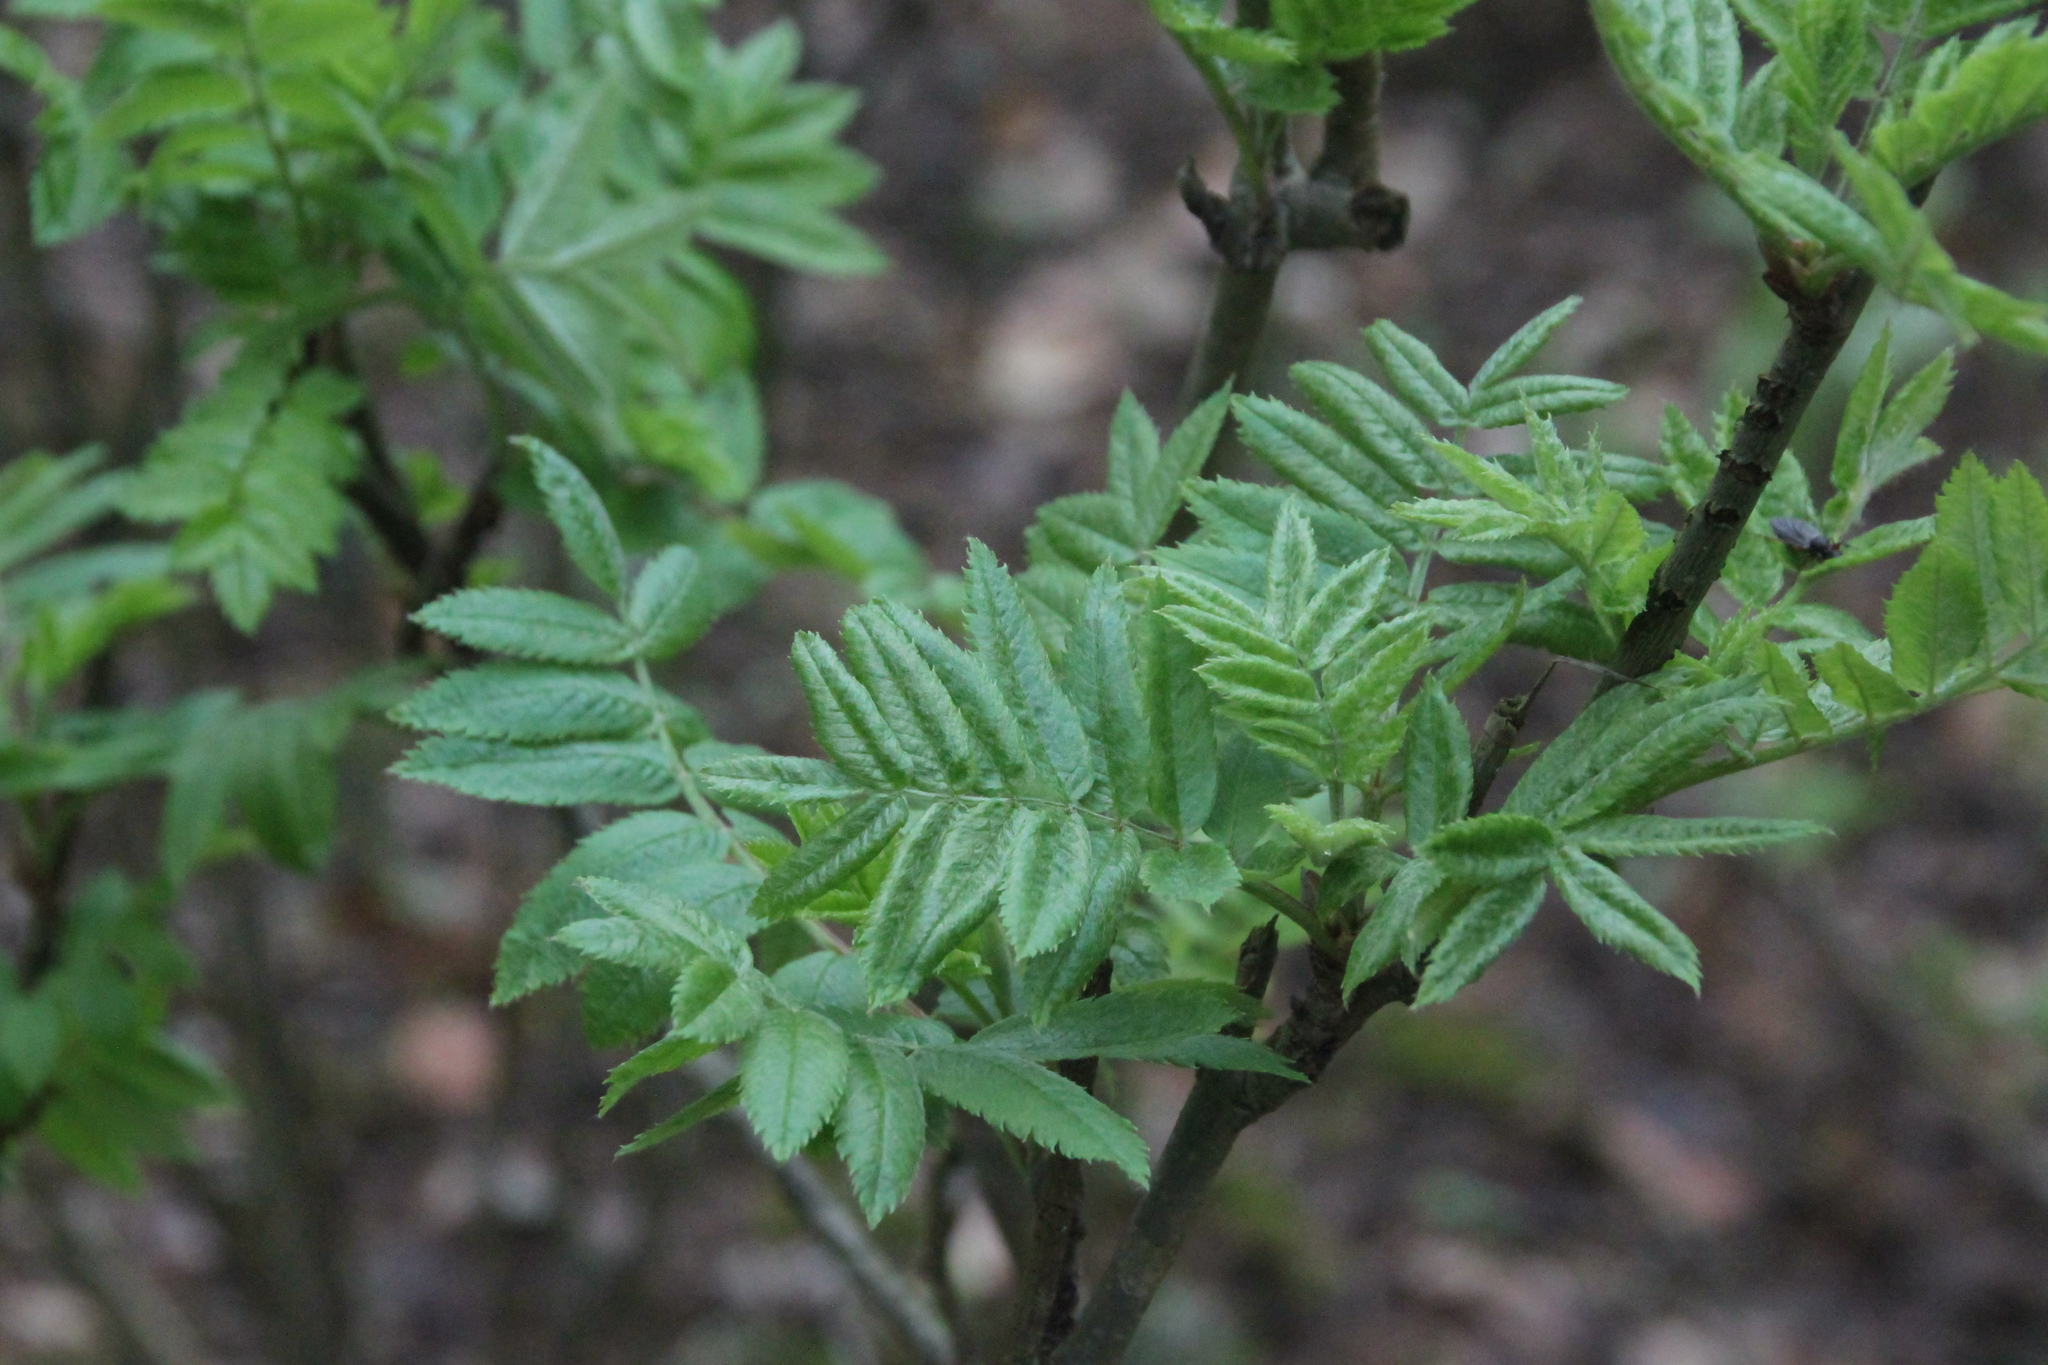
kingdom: Plantae
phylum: Tracheophyta
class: Magnoliopsida
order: Rosales
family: Rosaceae
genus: Sorbus
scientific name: Sorbus aucuparia
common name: Rowan
